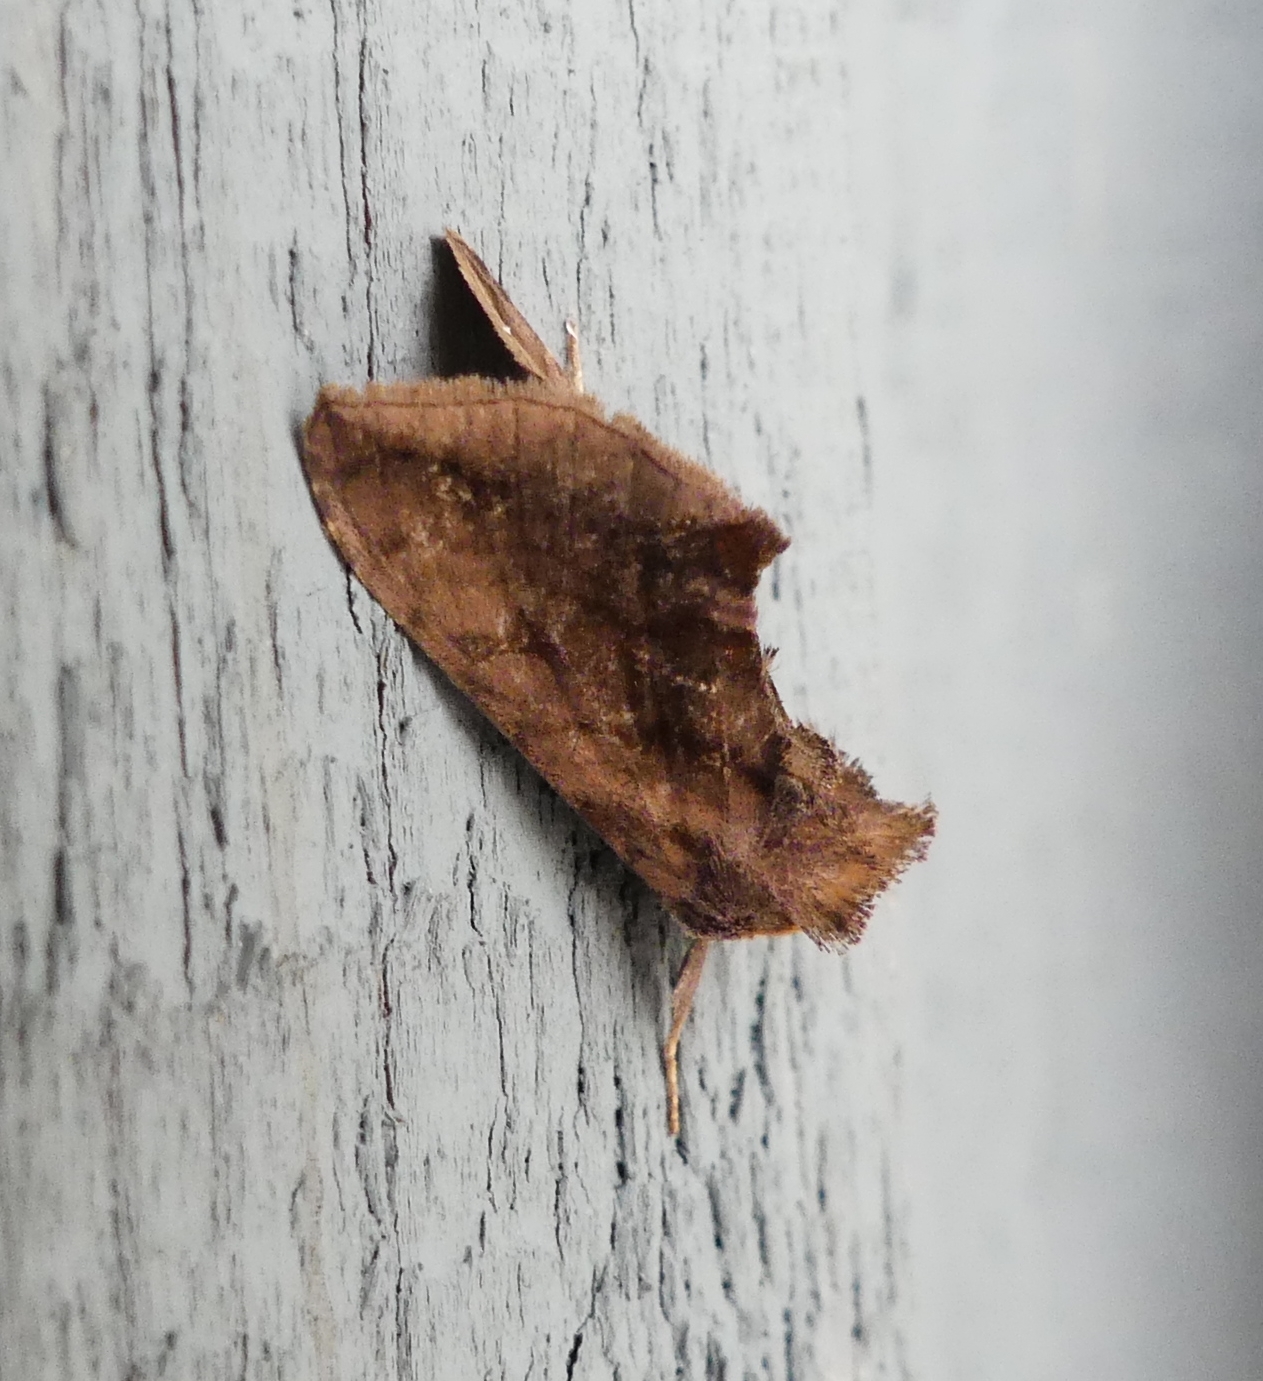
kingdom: Animalia
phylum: Arthropoda
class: Insecta
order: Lepidoptera
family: Noctuidae
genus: Allagrapha
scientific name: Allagrapha aerea
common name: Unspotted looper moth
